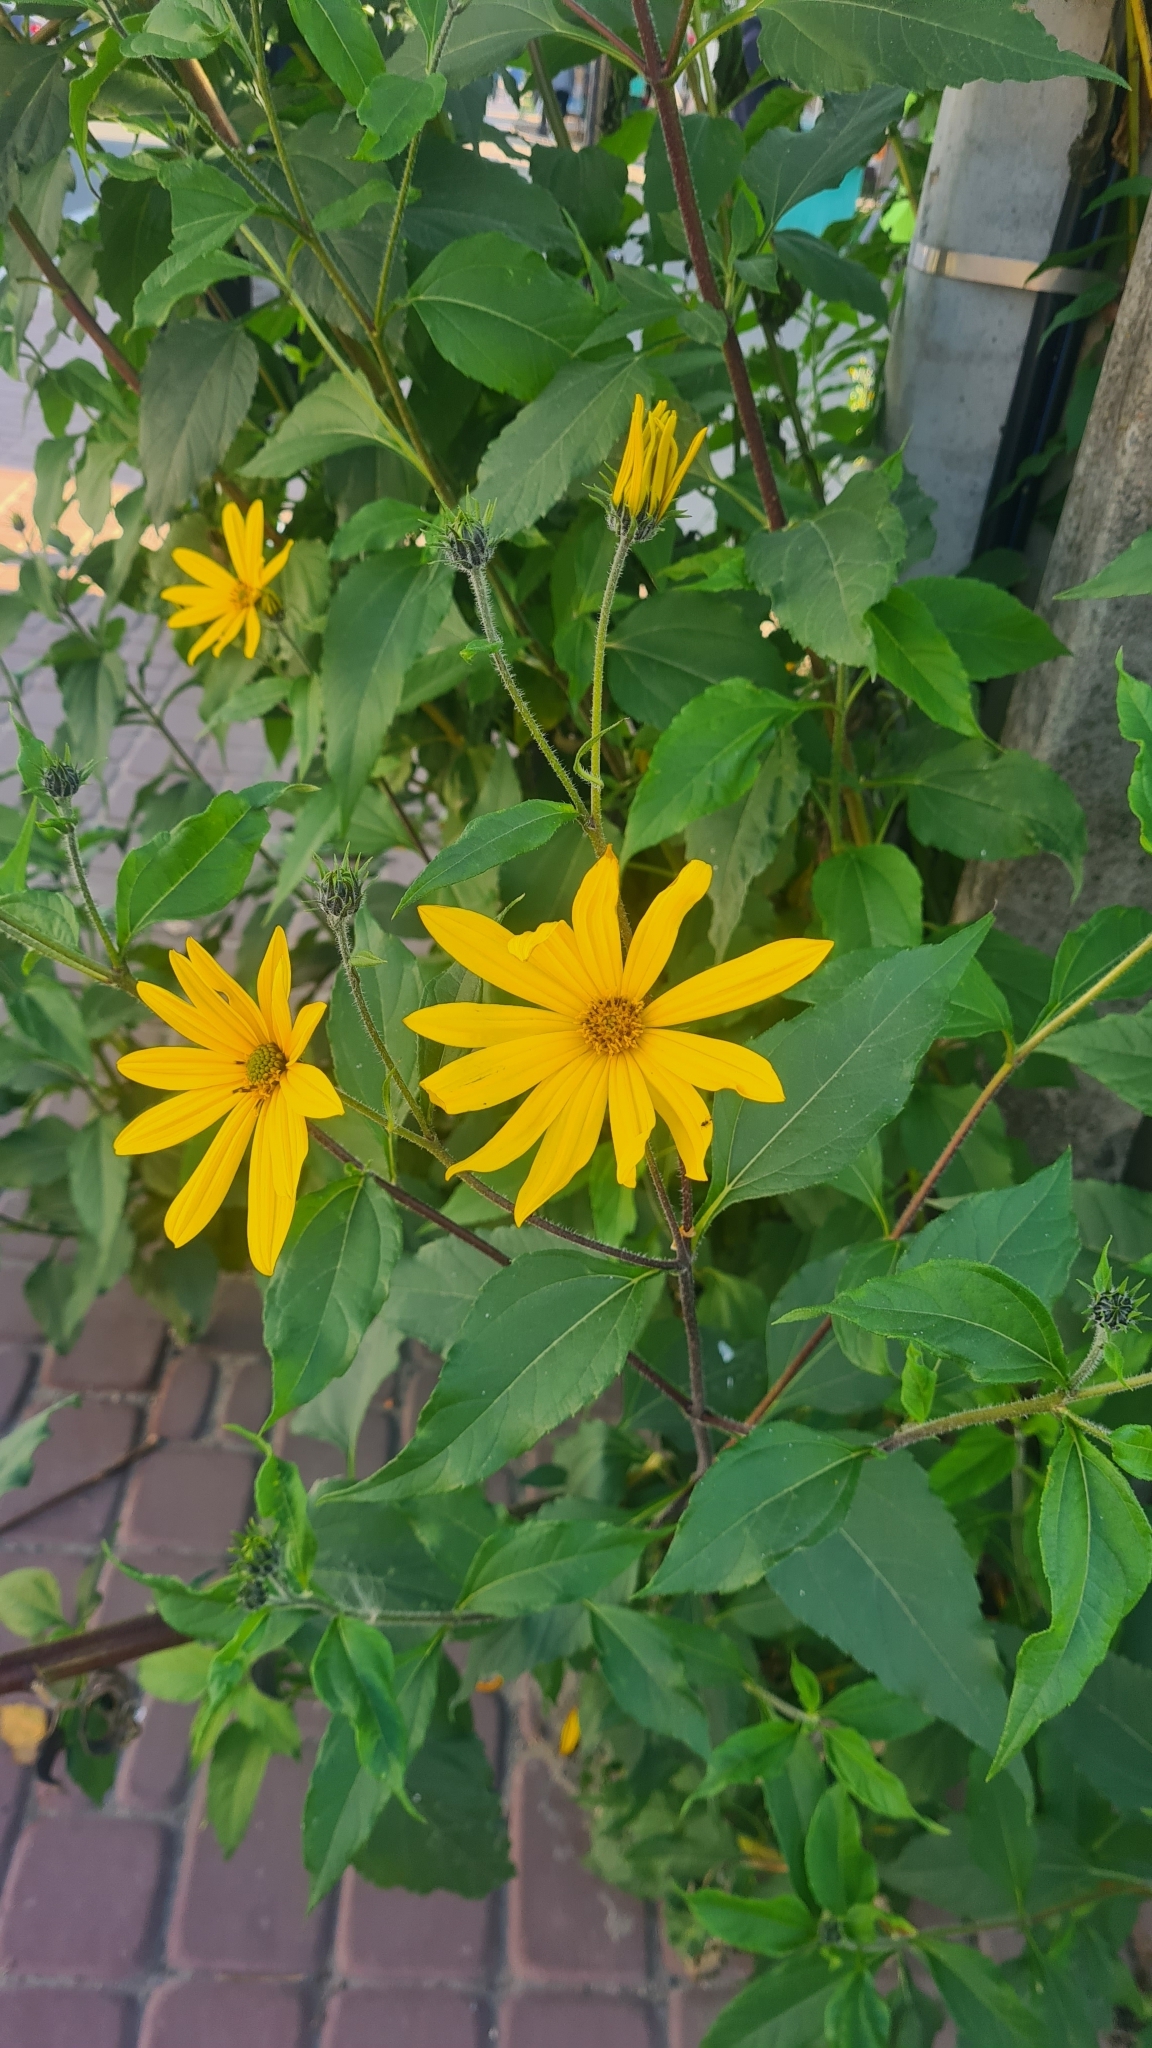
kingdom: Plantae
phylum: Tracheophyta
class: Magnoliopsida
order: Asterales
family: Asteraceae
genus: Helianthus
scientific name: Helianthus tuberosus
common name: Jerusalem artichoke
